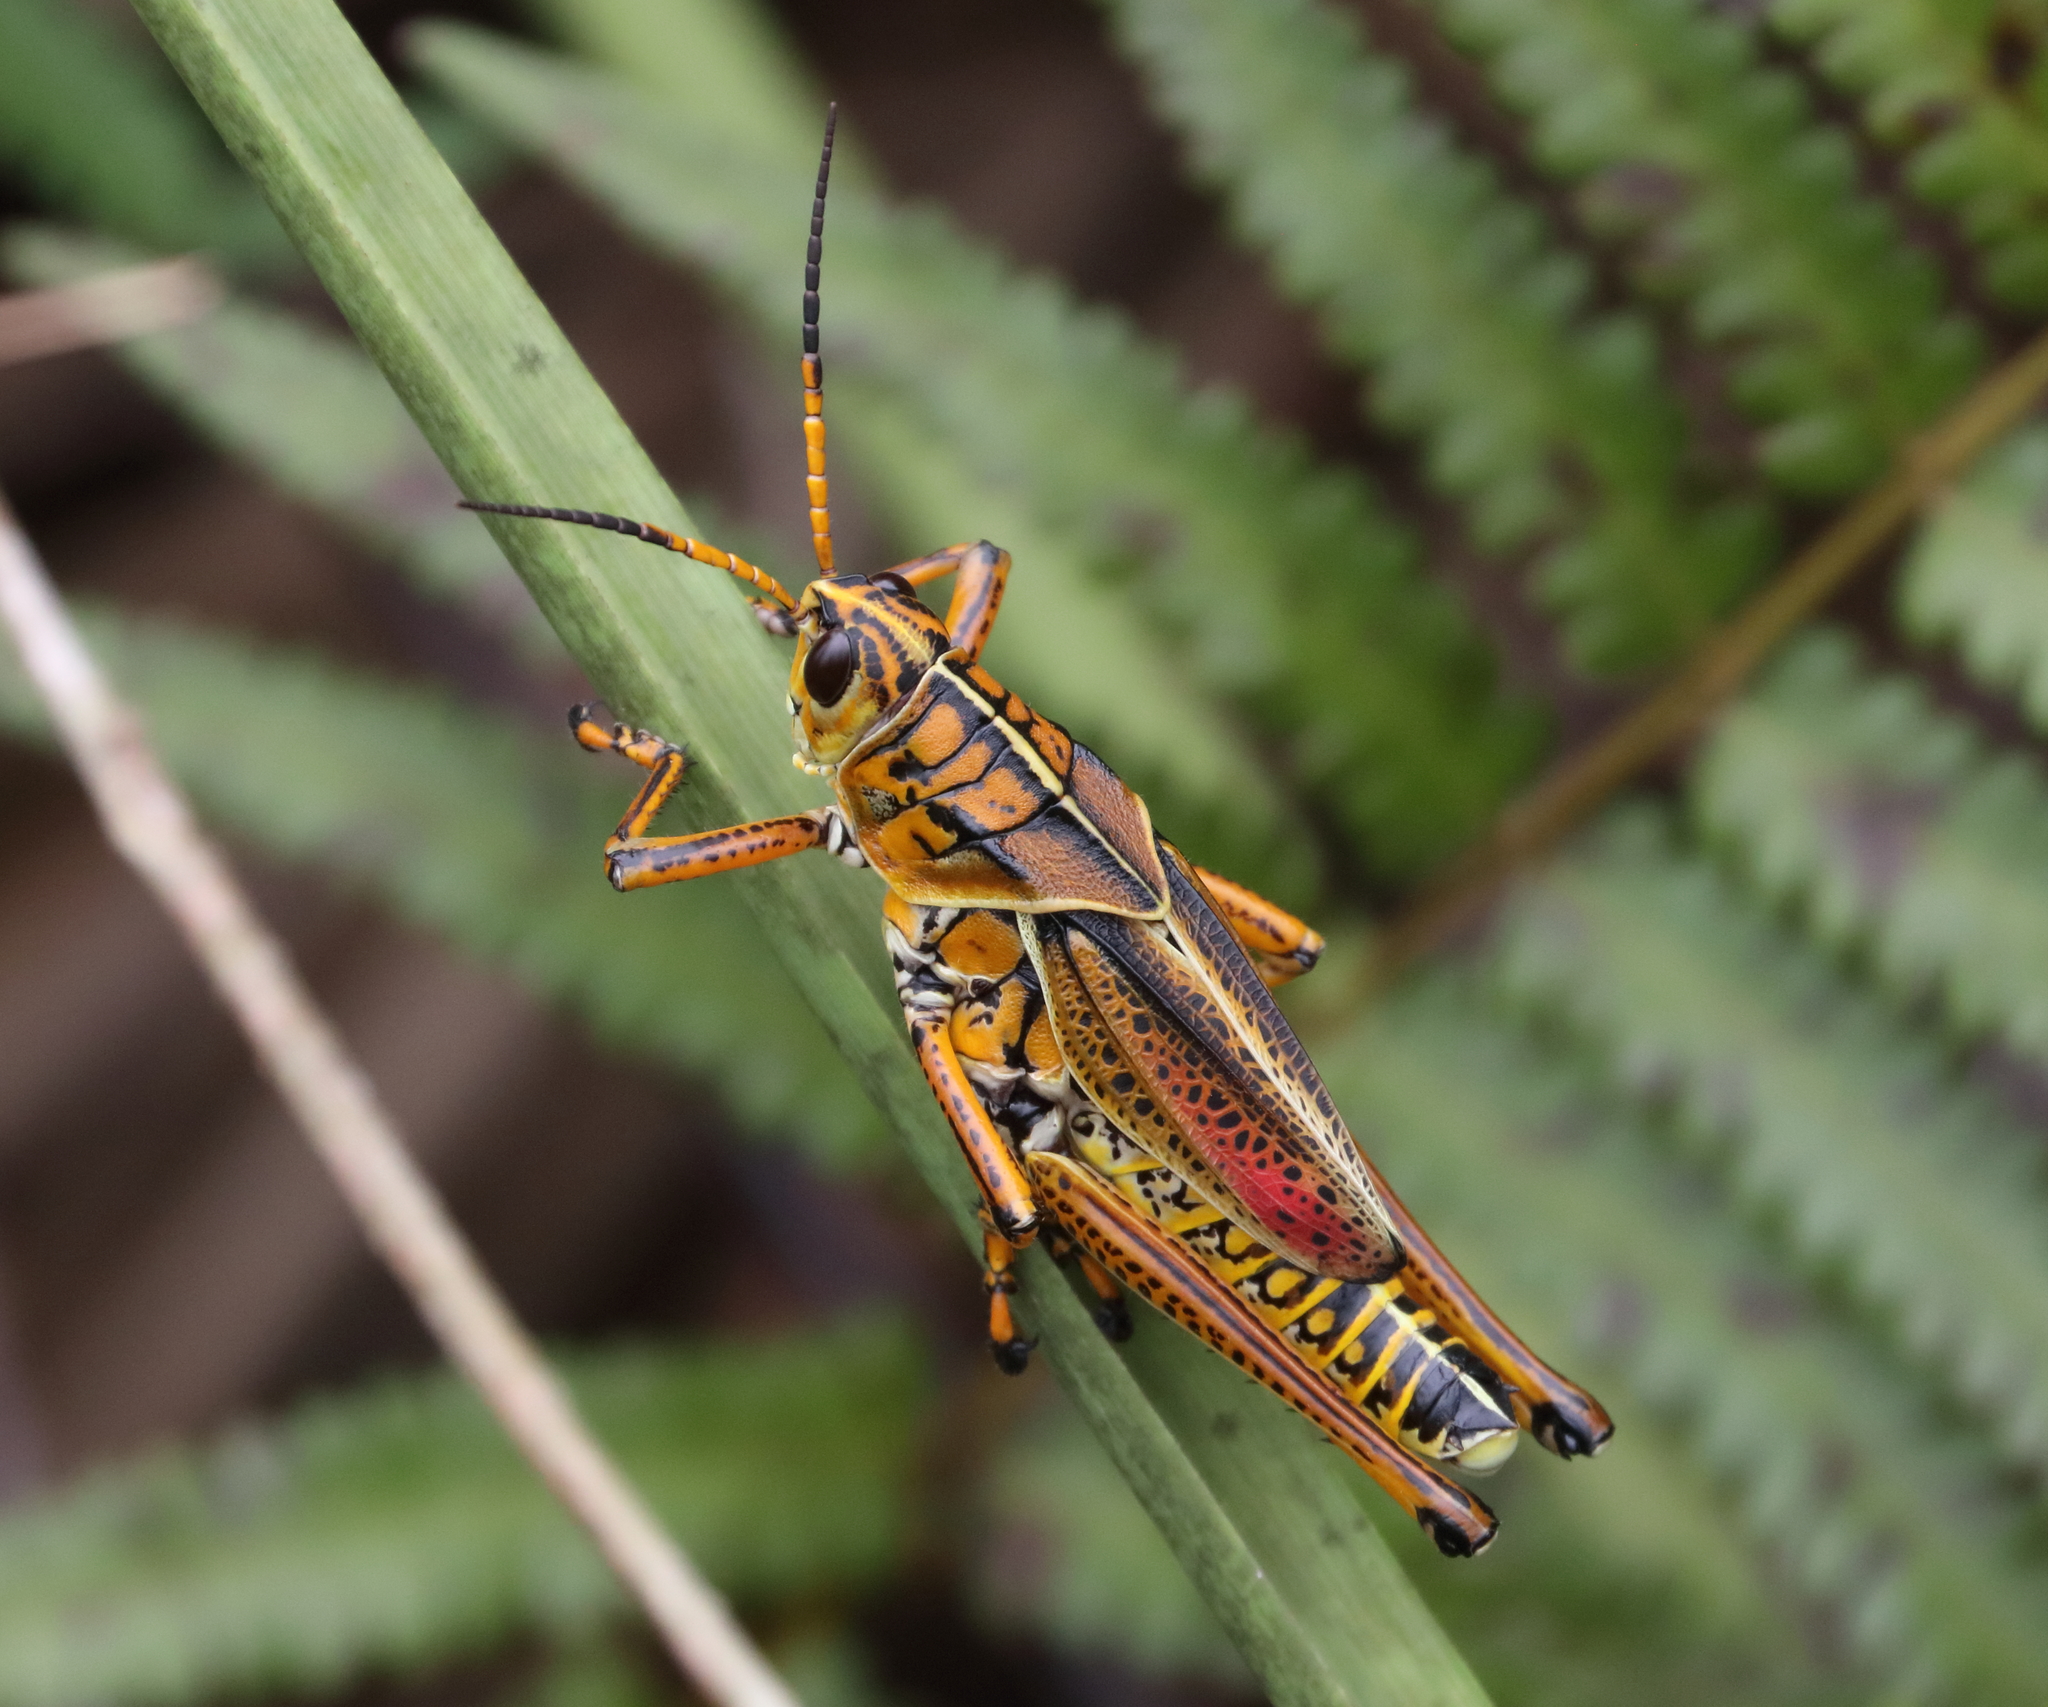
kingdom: Animalia
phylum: Arthropoda
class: Insecta
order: Orthoptera
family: Romaleidae
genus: Romalea
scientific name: Romalea microptera
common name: Eastern lubber grasshopper
